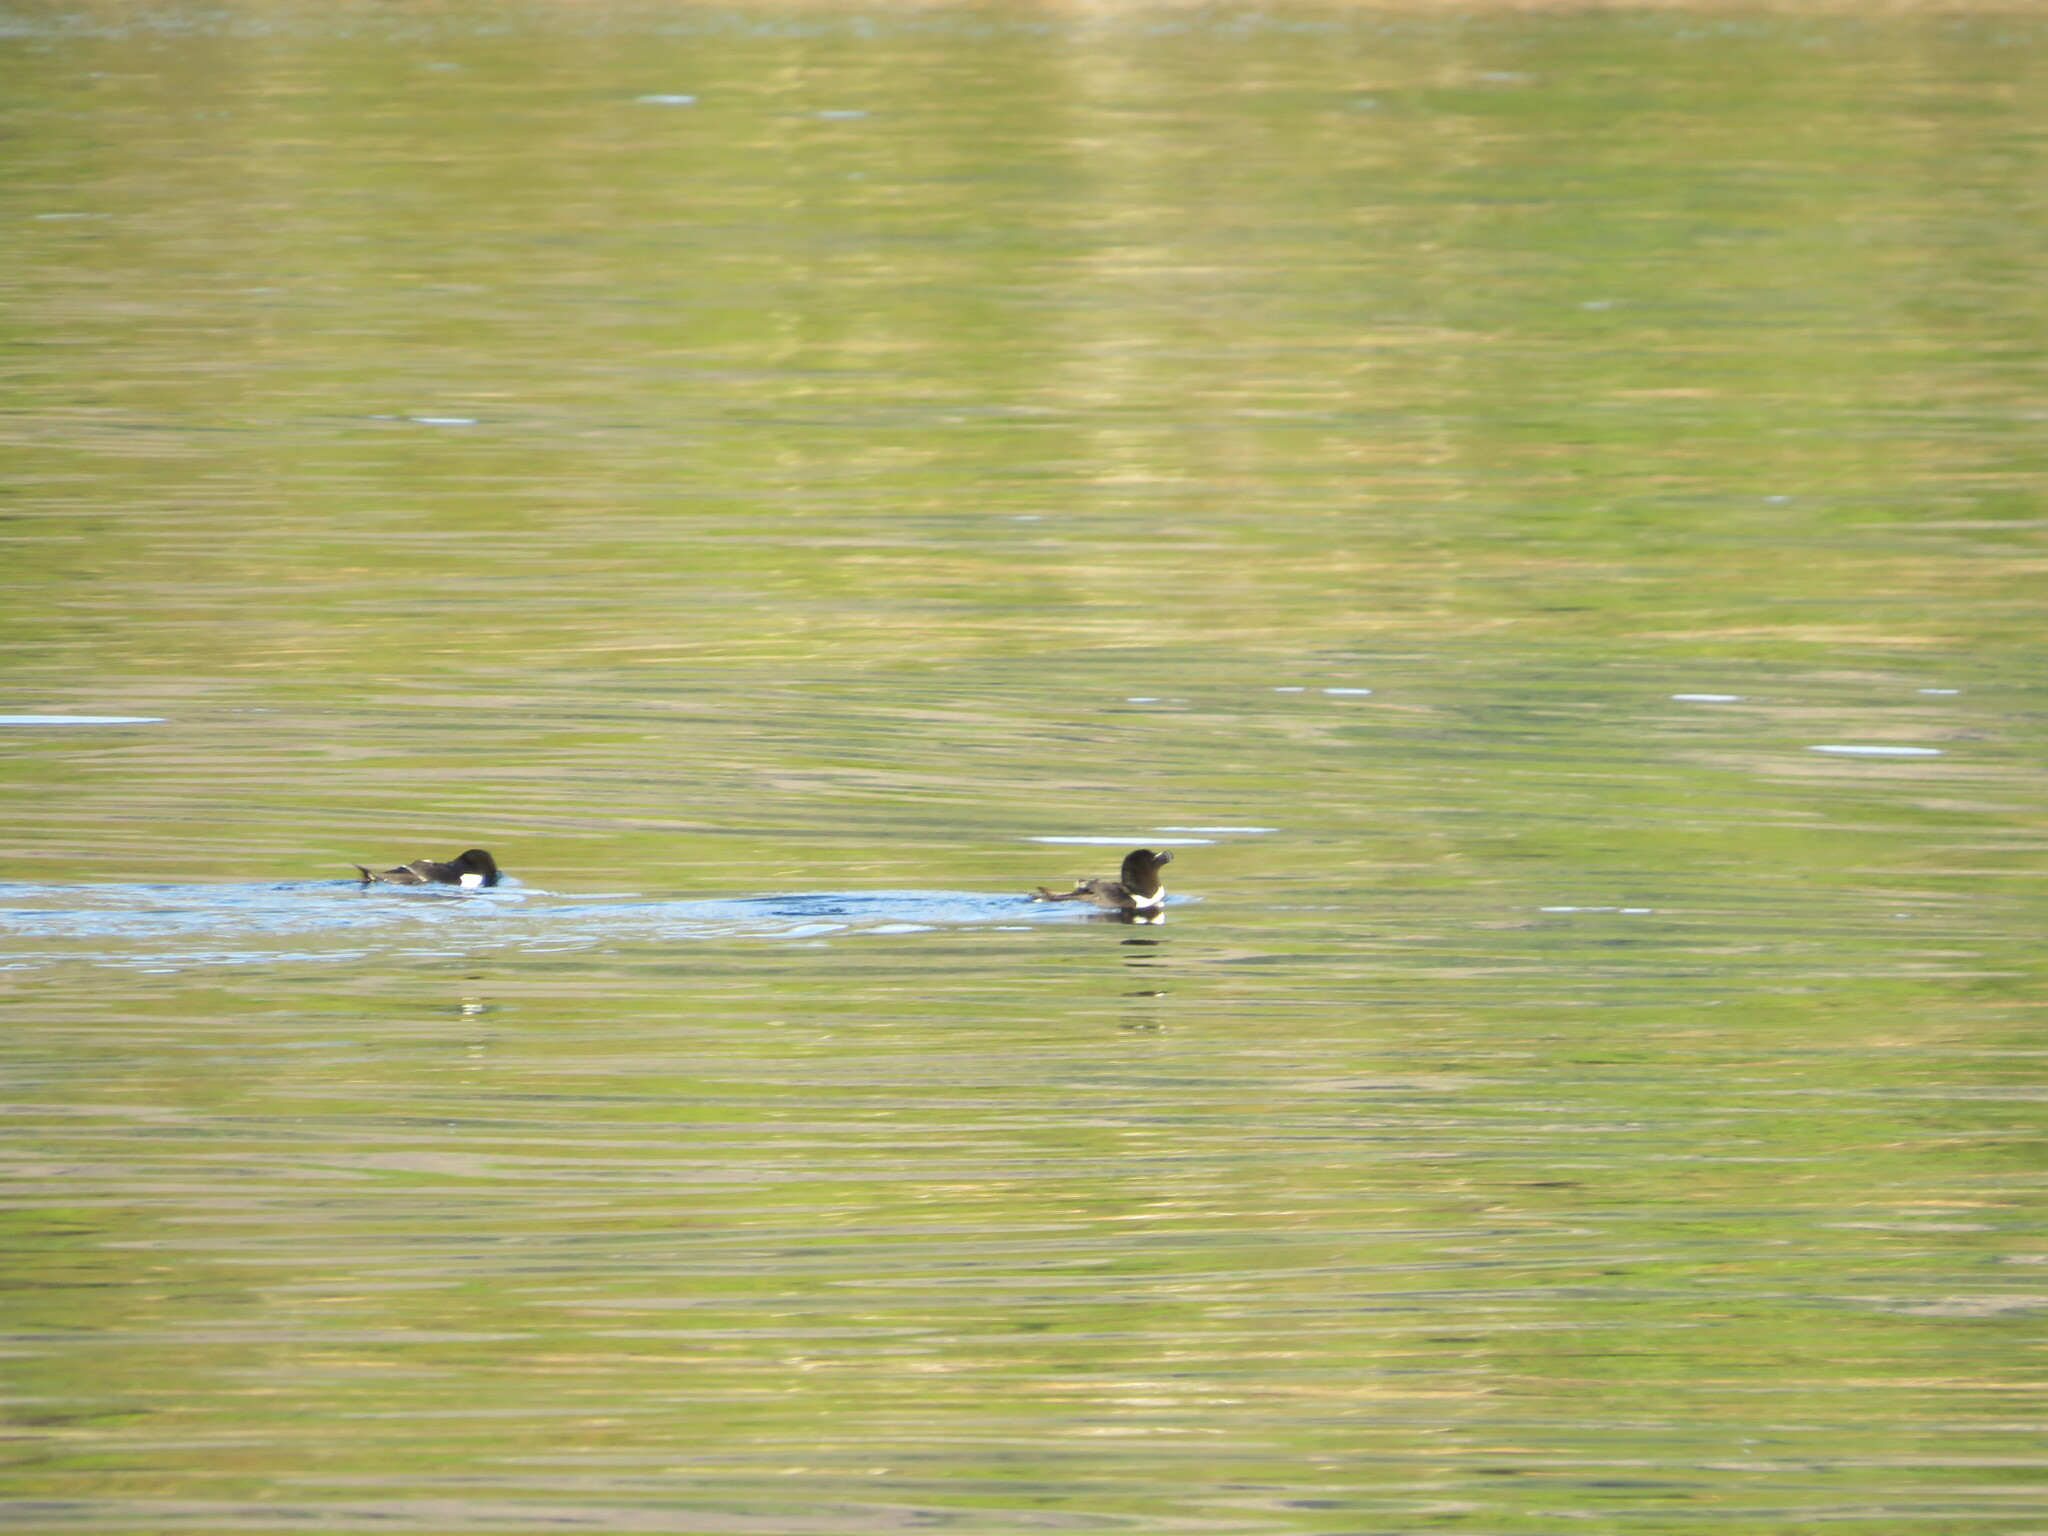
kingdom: Animalia
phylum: Chordata
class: Aves
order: Charadriiformes
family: Alcidae
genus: Alca
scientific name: Alca torda
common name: Razorbill
